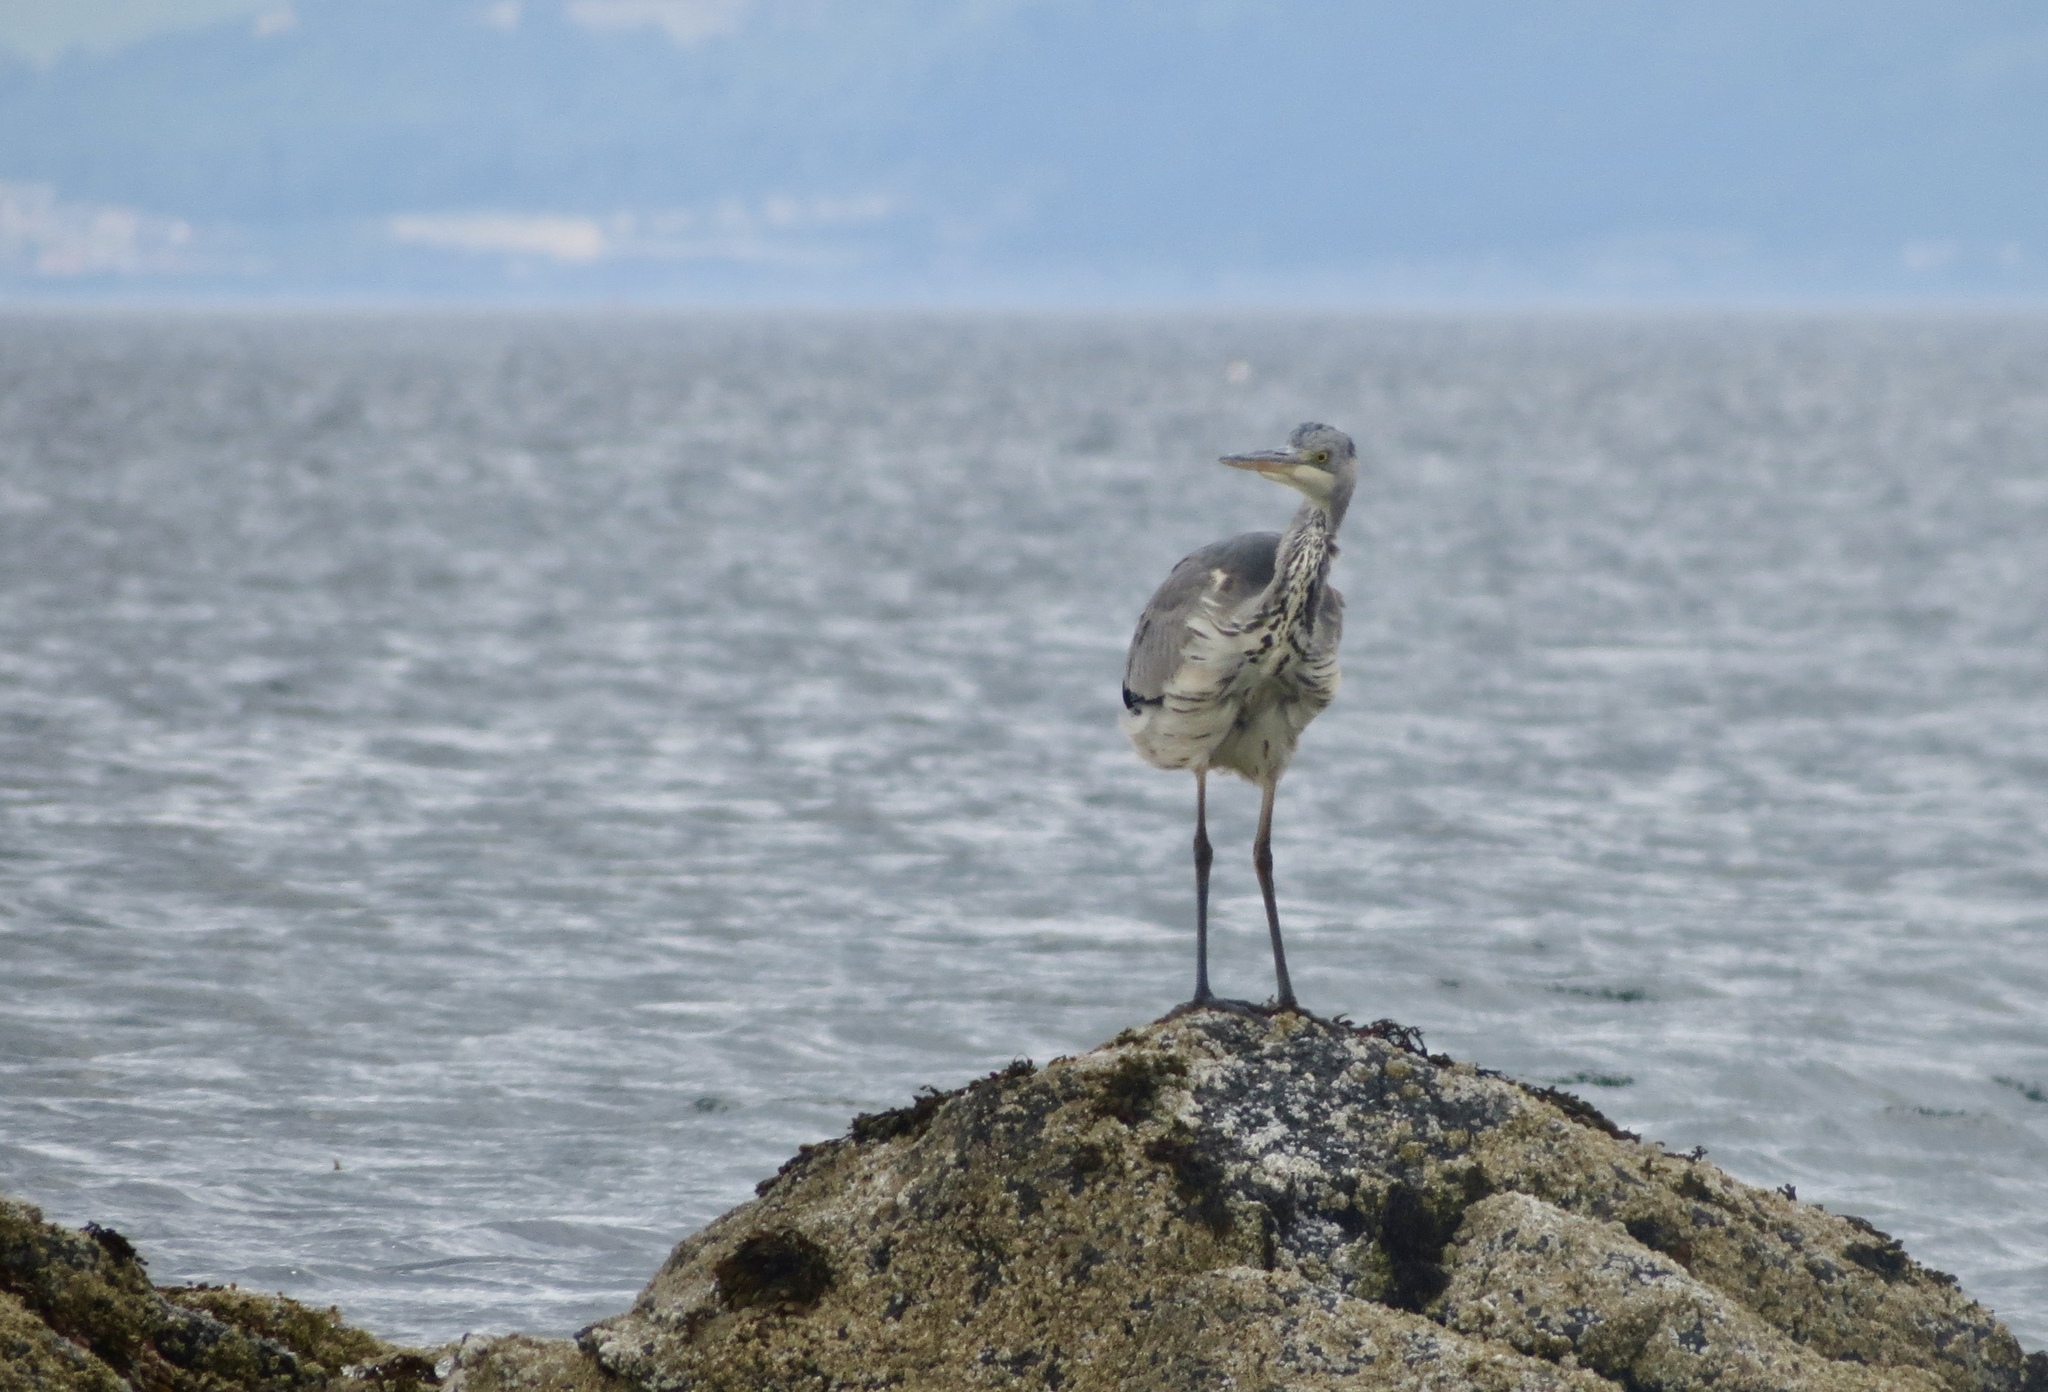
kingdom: Animalia
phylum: Chordata
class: Aves
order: Pelecaniformes
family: Ardeidae
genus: Ardea
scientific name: Ardea cinerea
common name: Grey heron
